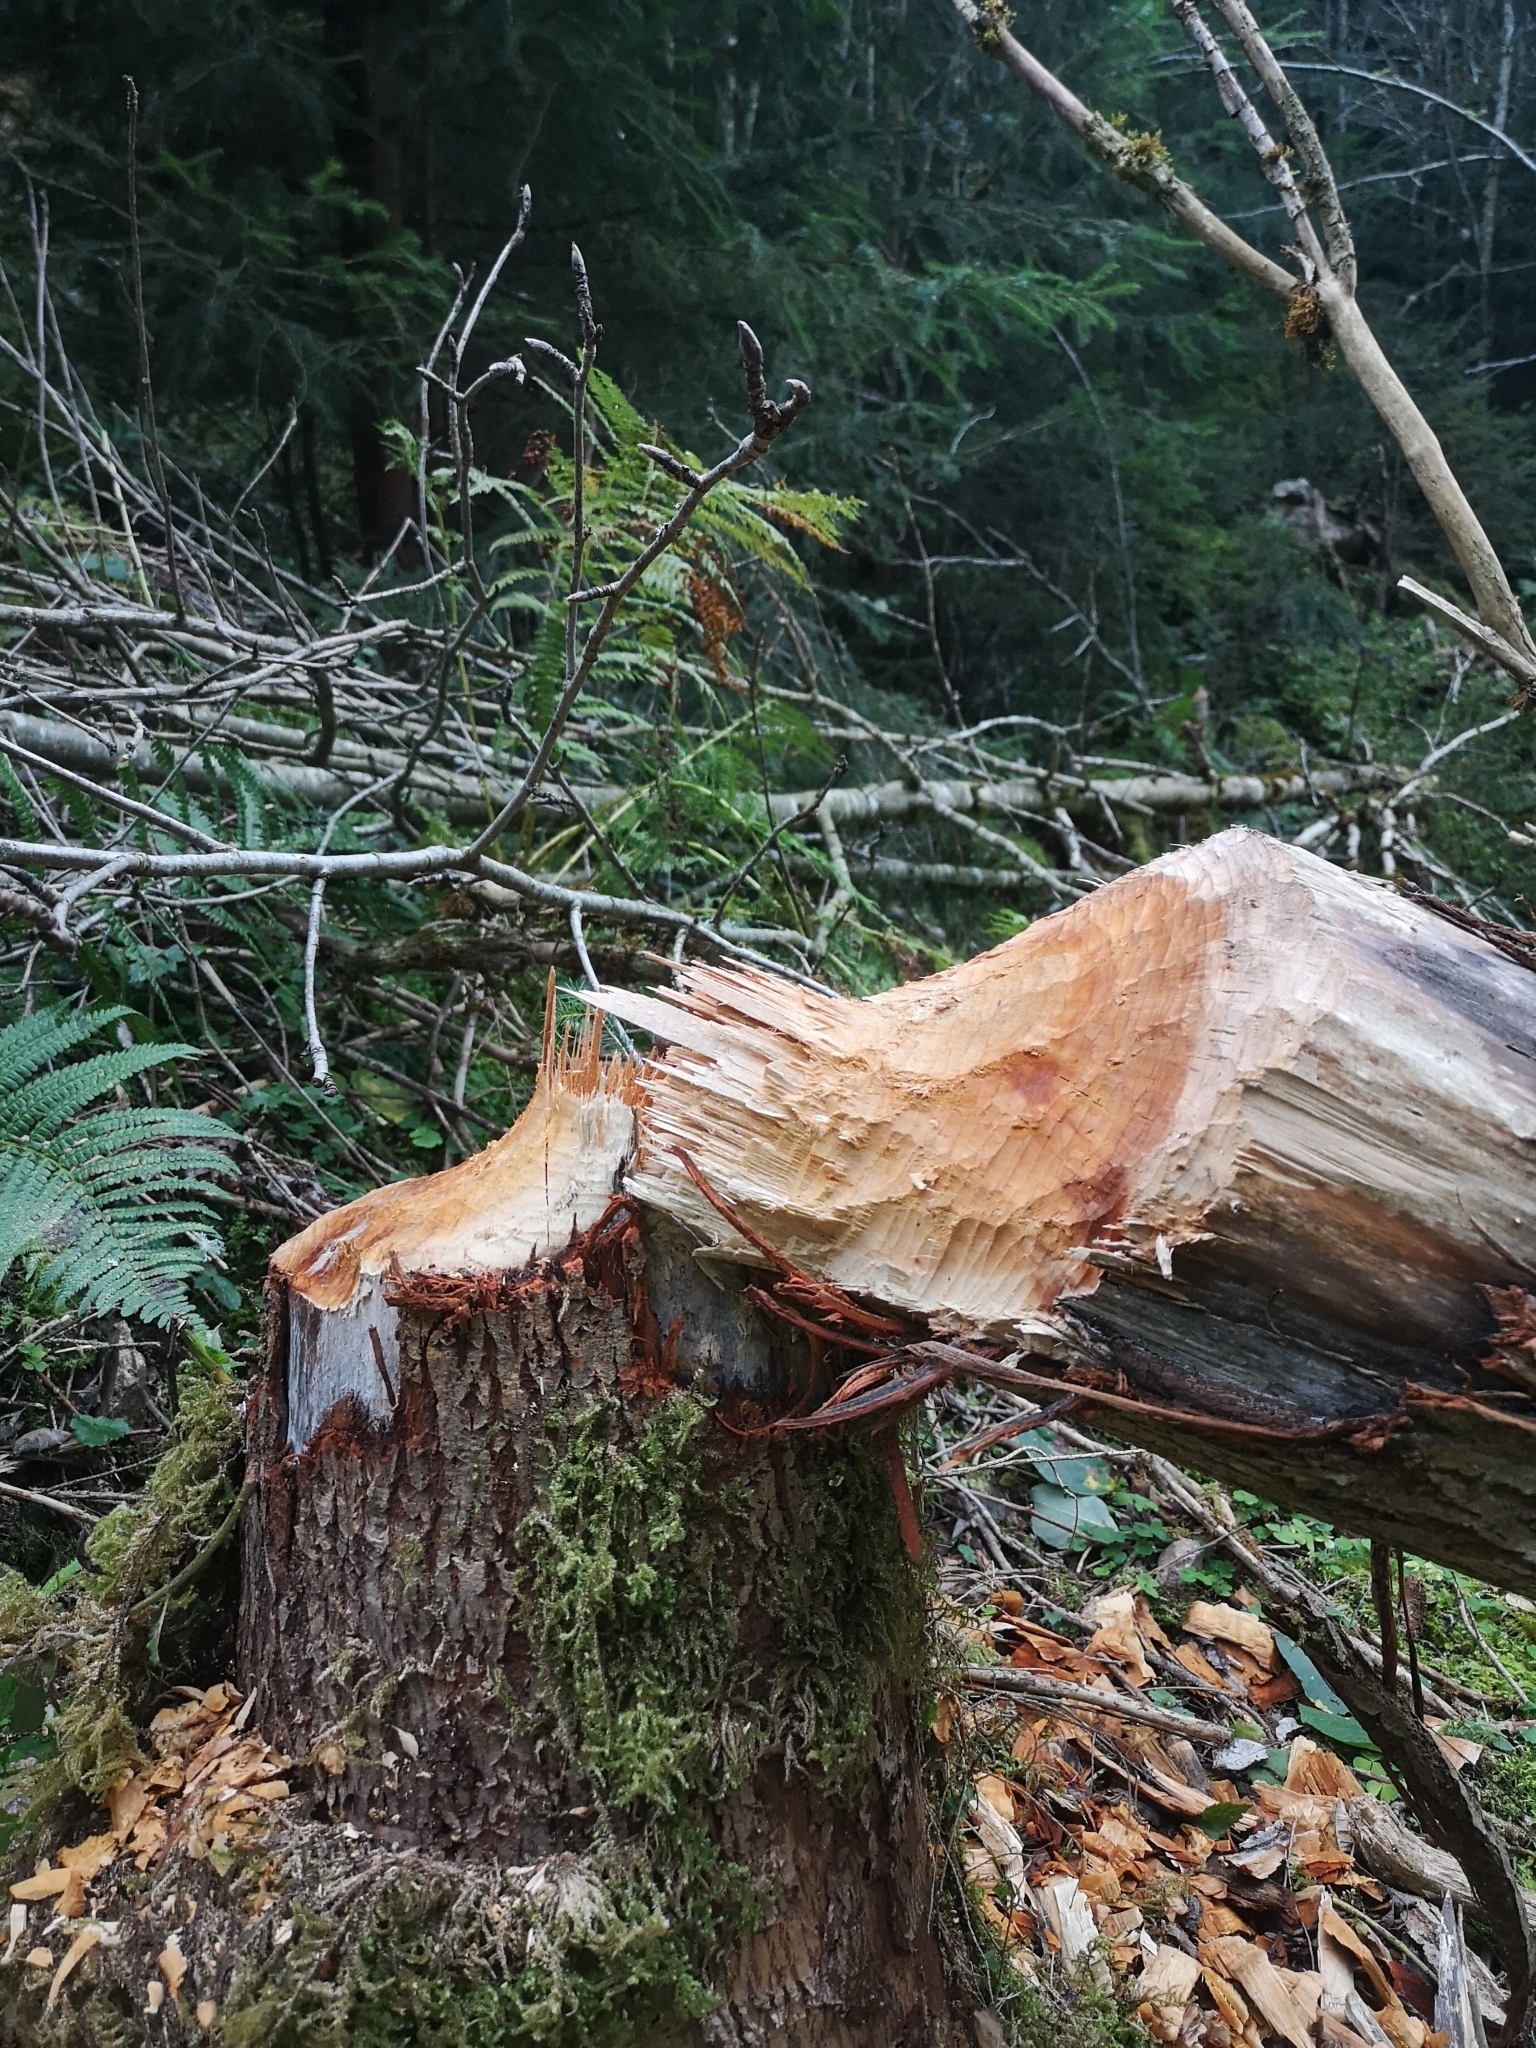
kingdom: Animalia
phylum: Chordata
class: Mammalia
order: Rodentia
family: Castoridae
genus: Castor
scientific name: Castor fiber
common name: Eurasian beaver
